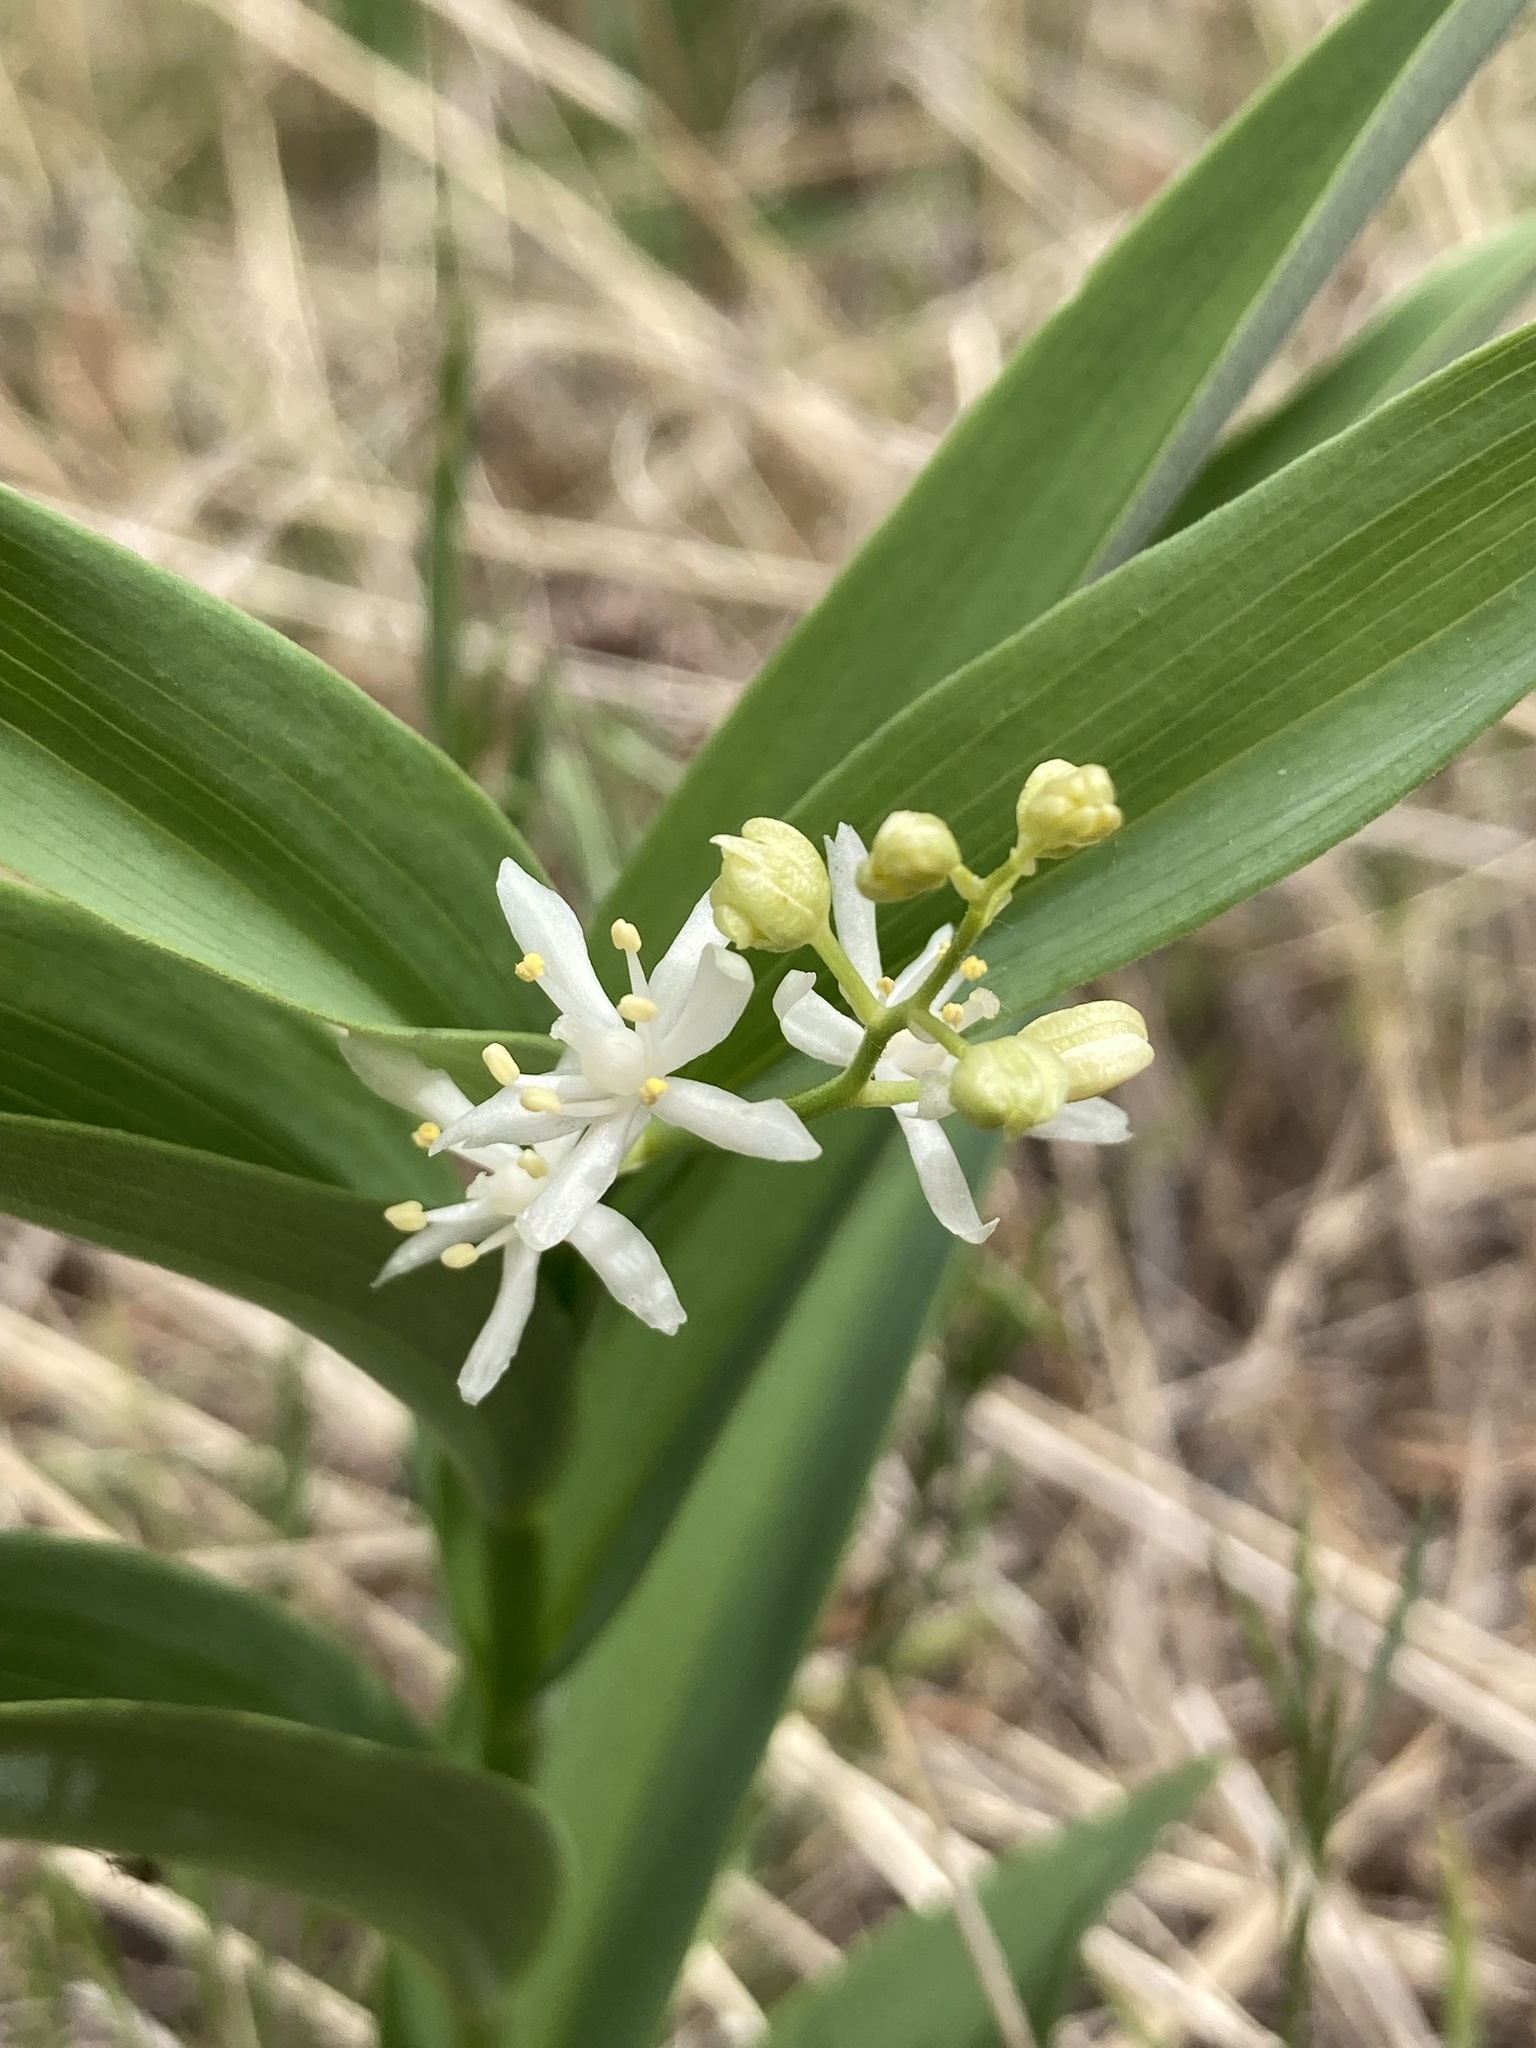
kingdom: Plantae
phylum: Tracheophyta
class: Liliopsida
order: Asparagales
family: Asparagaceae
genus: Maianthemum
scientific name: Maianthemum stellatum
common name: Little false solomon's seal
